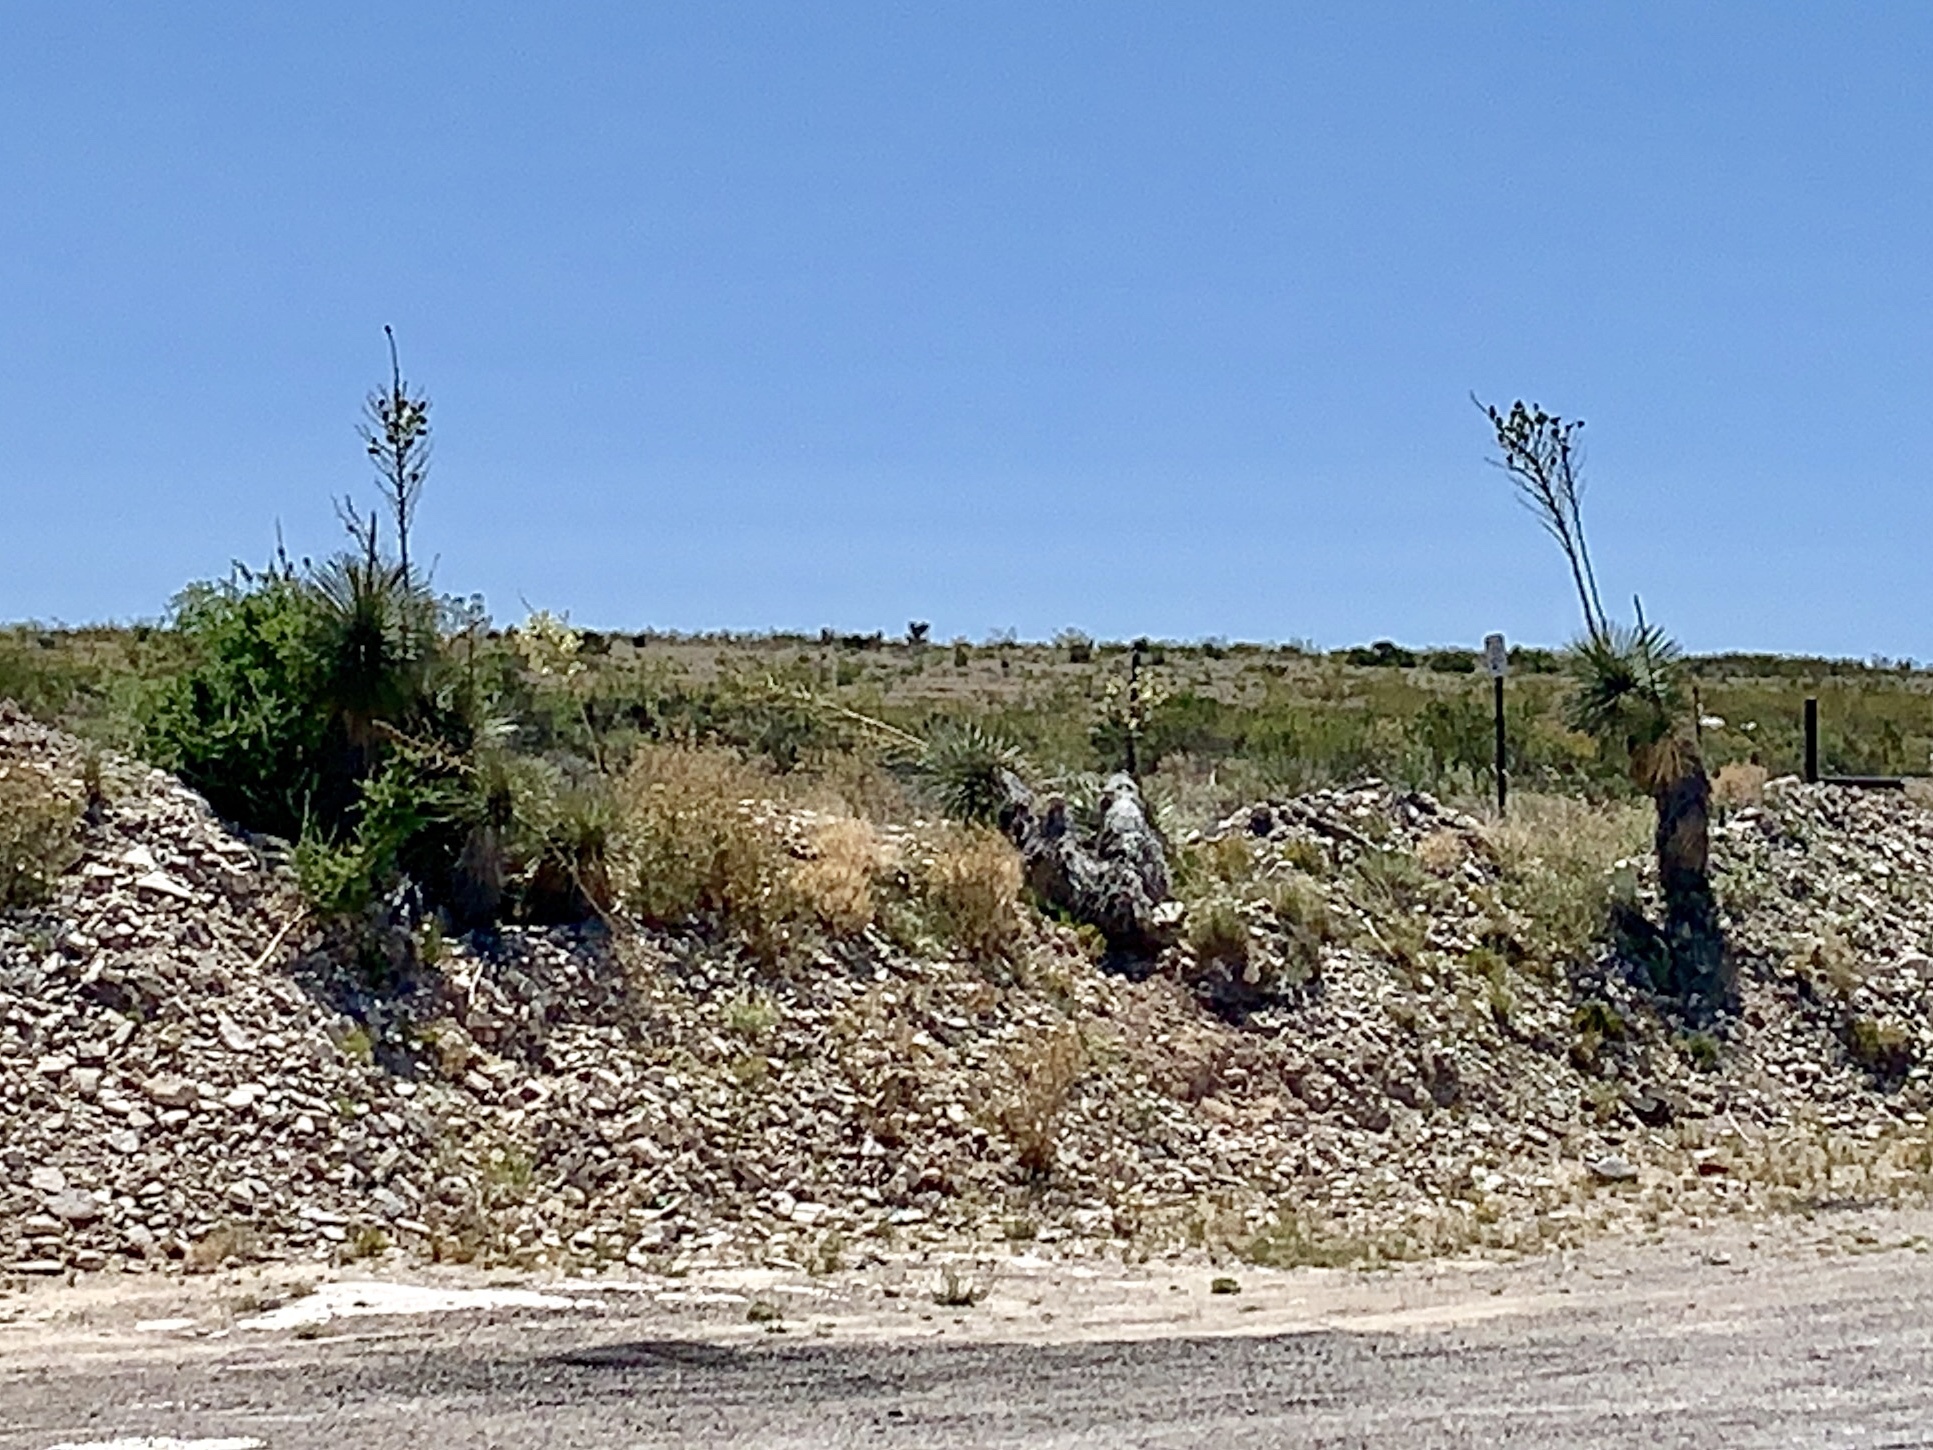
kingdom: Plantae
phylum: Tracheophyta
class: Liliopsida
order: Asparagales
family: Asparagaceae
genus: Yucca
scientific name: Yucca elata
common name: Palmella
